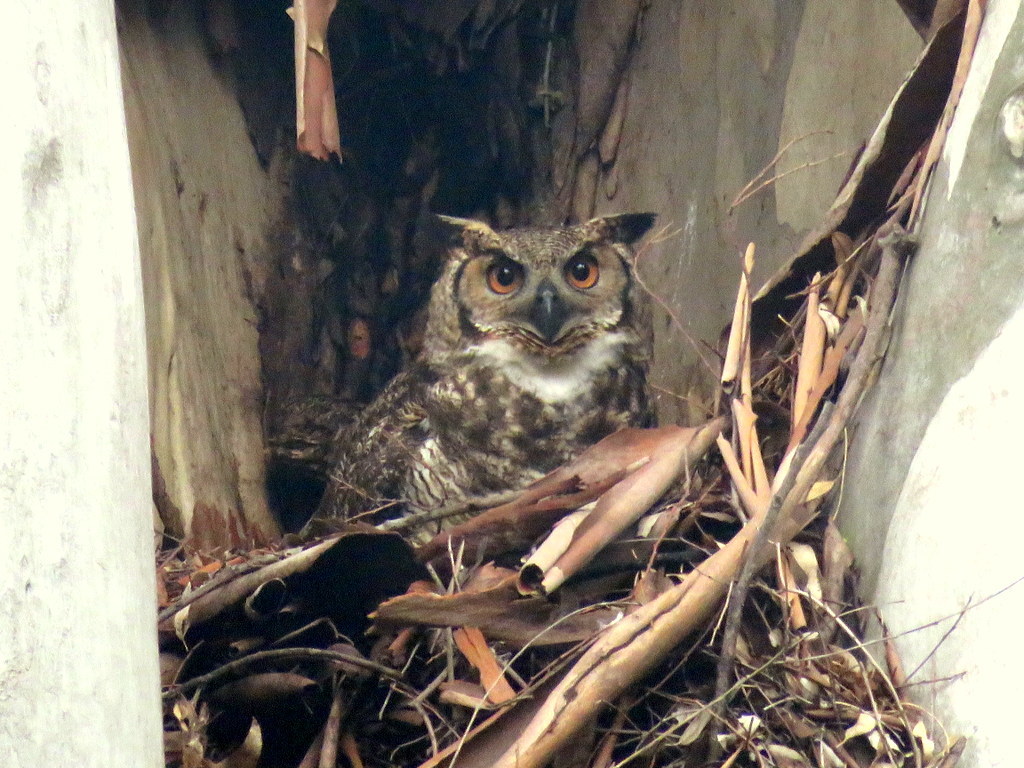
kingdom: Animalia
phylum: Chordata
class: Aves
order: Strigiformes
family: Strigidae
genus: Bubo
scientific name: Bubo virginianus
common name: Great horned owl
